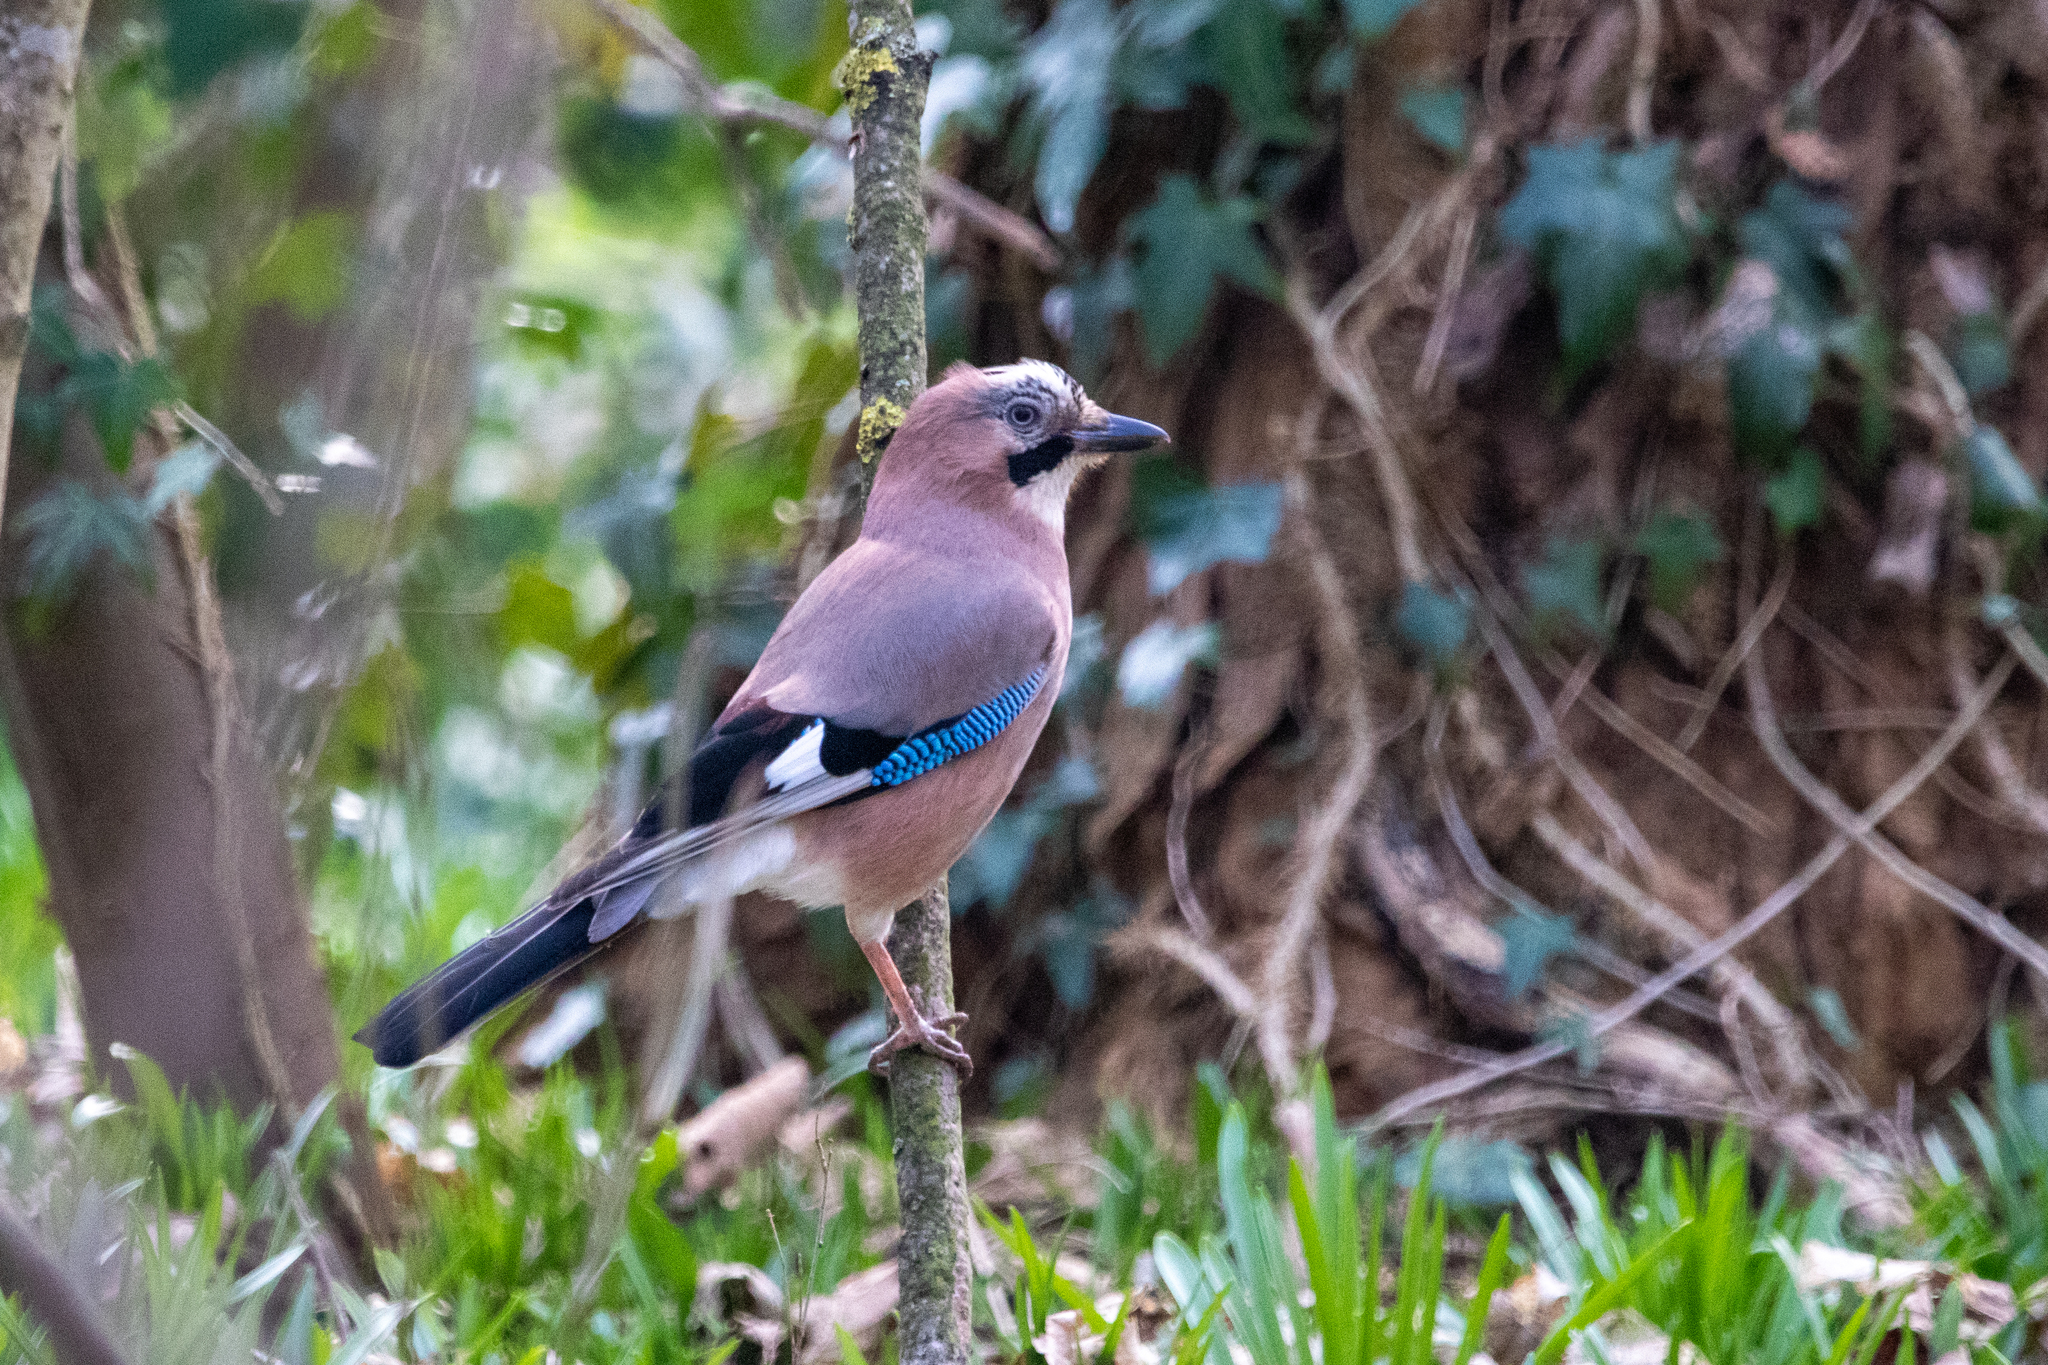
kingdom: Animalia
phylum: Chordata
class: Aves
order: Passeriformes
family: Corvidae
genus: Garrulus
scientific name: Garrulus glandarius
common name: Eurasian jay
